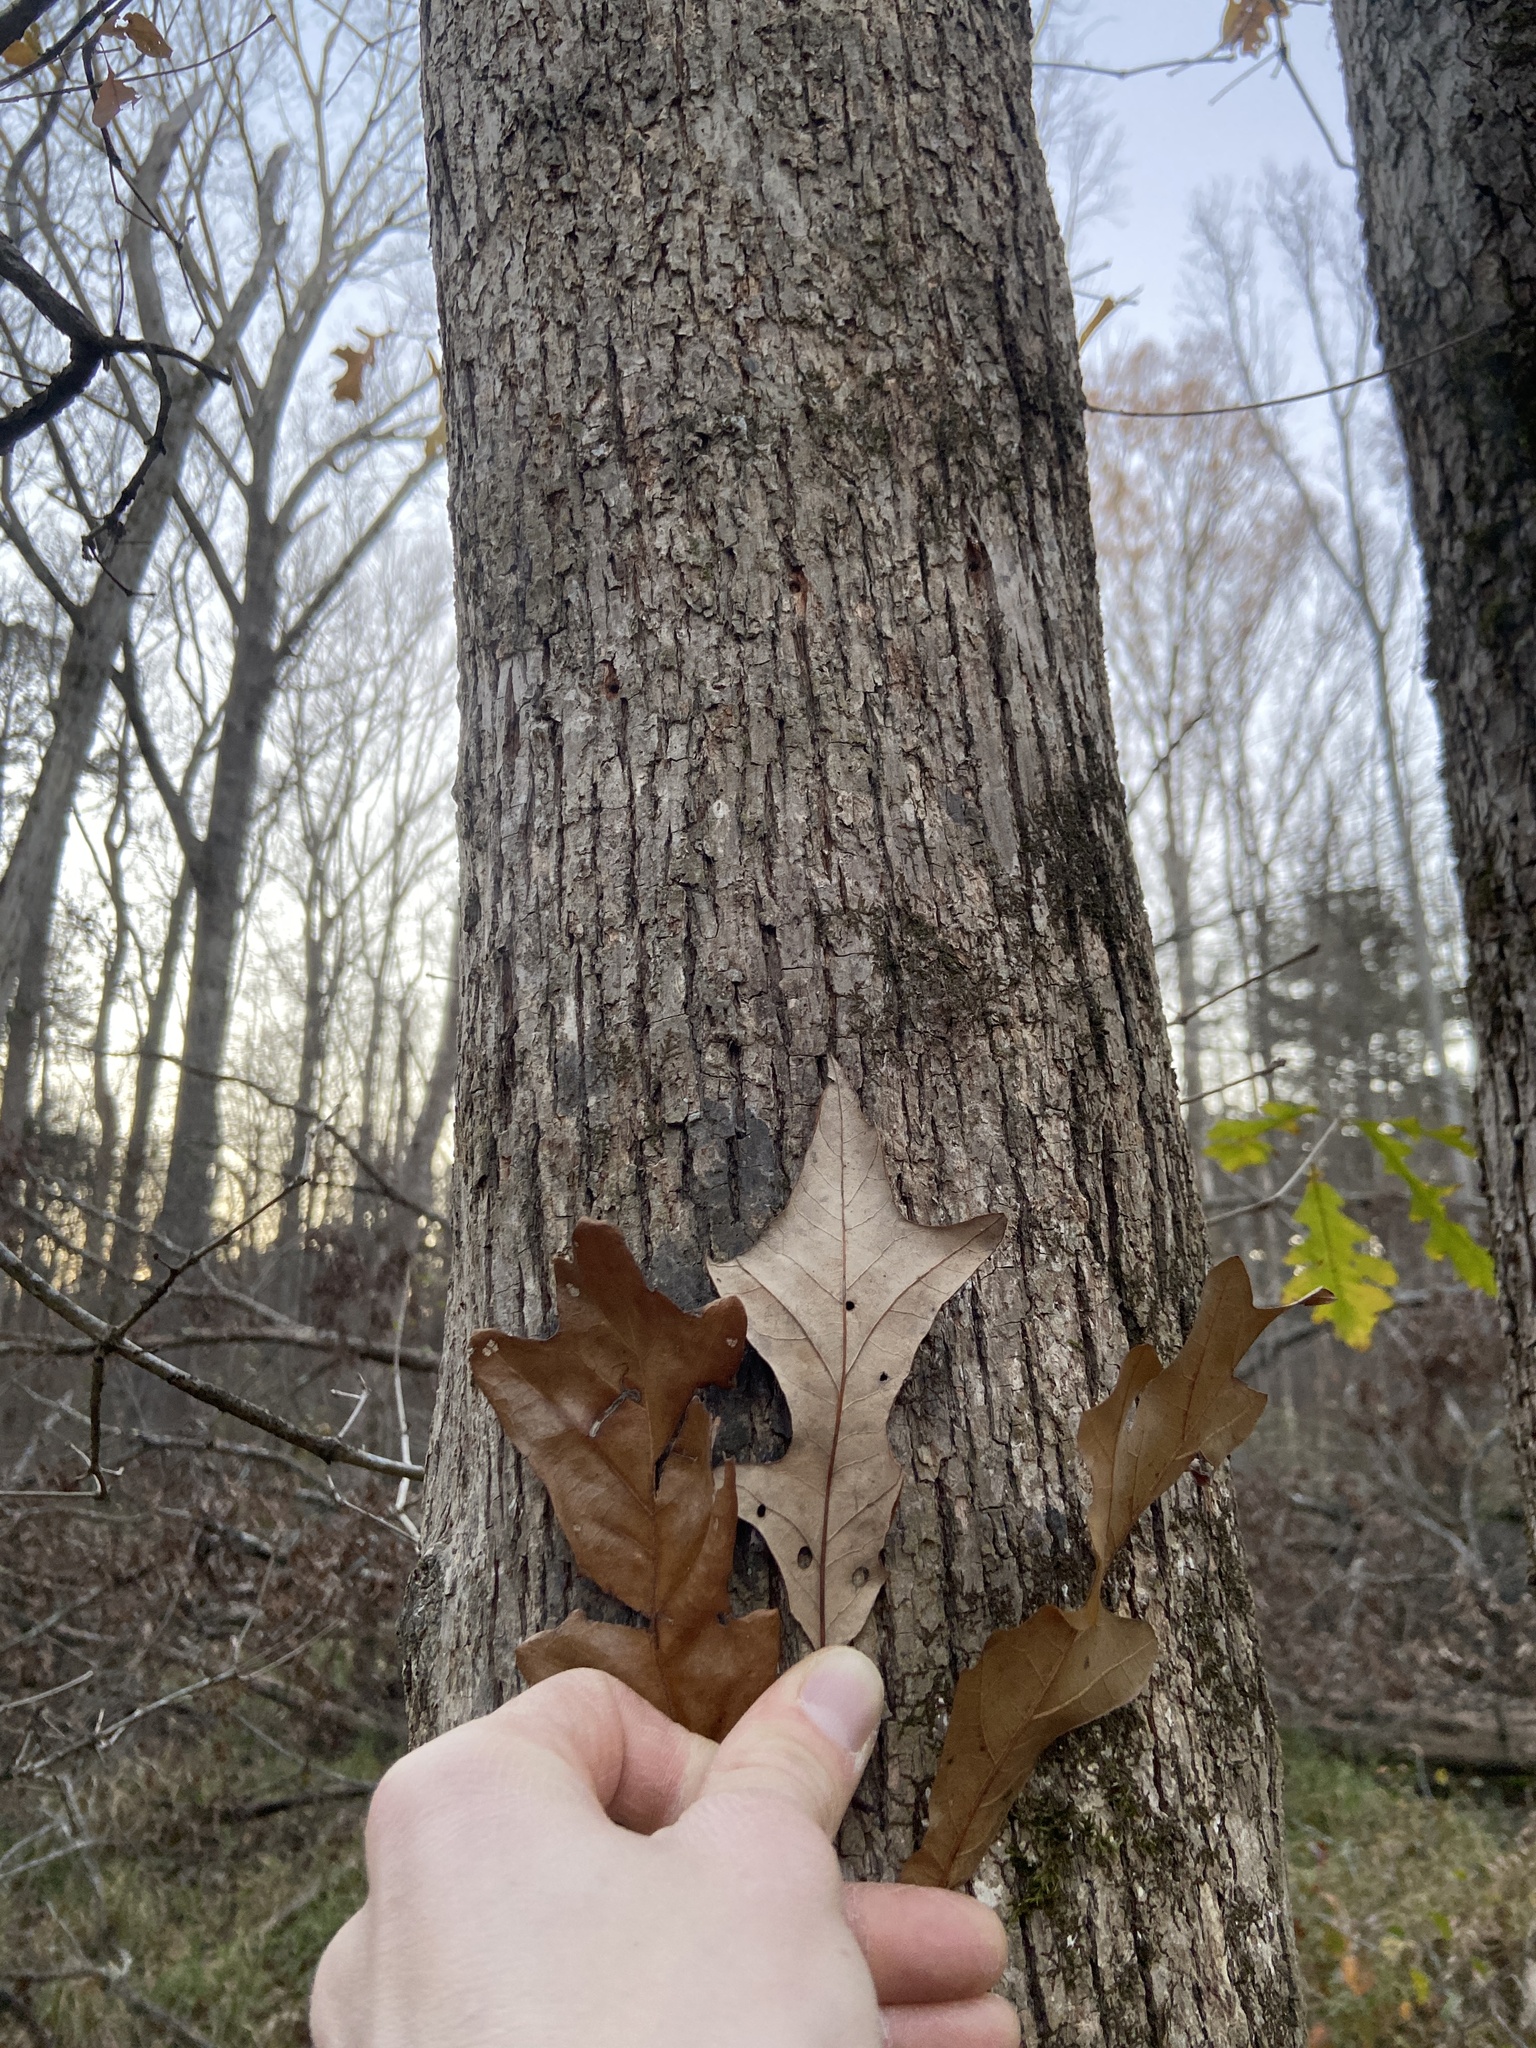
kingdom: Plantae
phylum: Tracheophyta
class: Magnoliopsida
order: Fagales
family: Fagaceae
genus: Quercus
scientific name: Quercus lyrata
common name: Overcup oak
